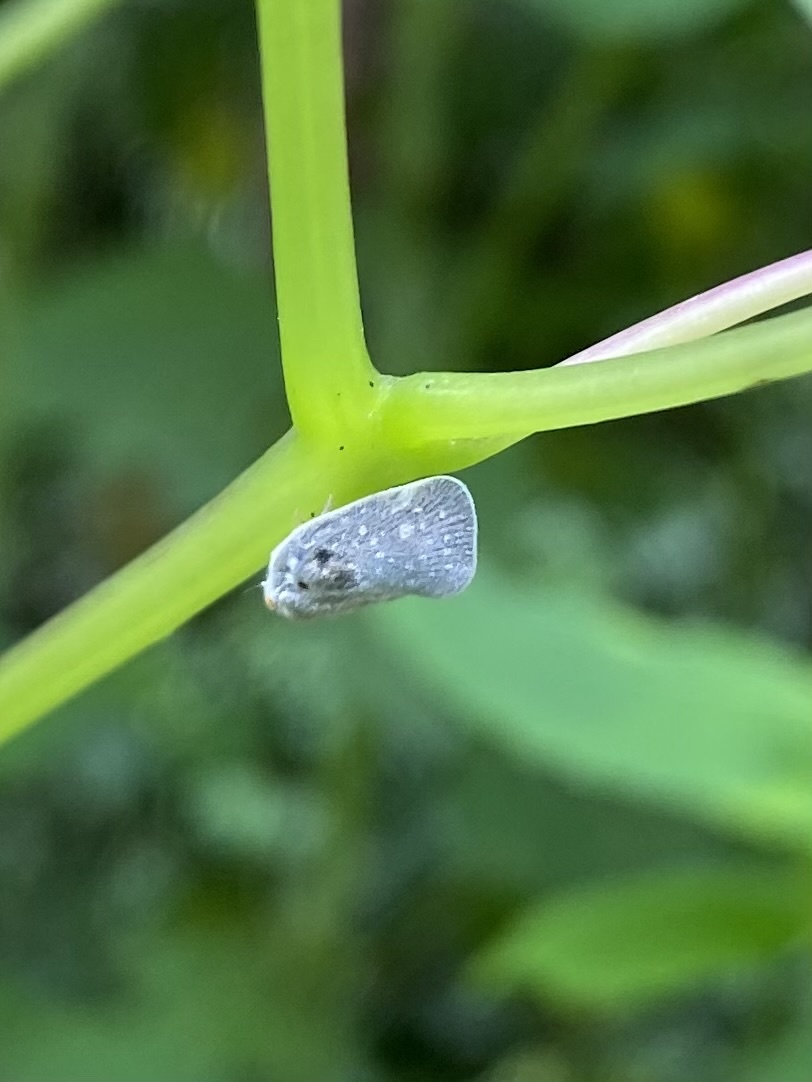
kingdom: Animalia
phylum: Arthropoda
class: Insecta
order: Hemiptera
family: Flatidae
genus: Metcalfa
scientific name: Metcalfa pruinosa
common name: Citrus flatid planthopper
